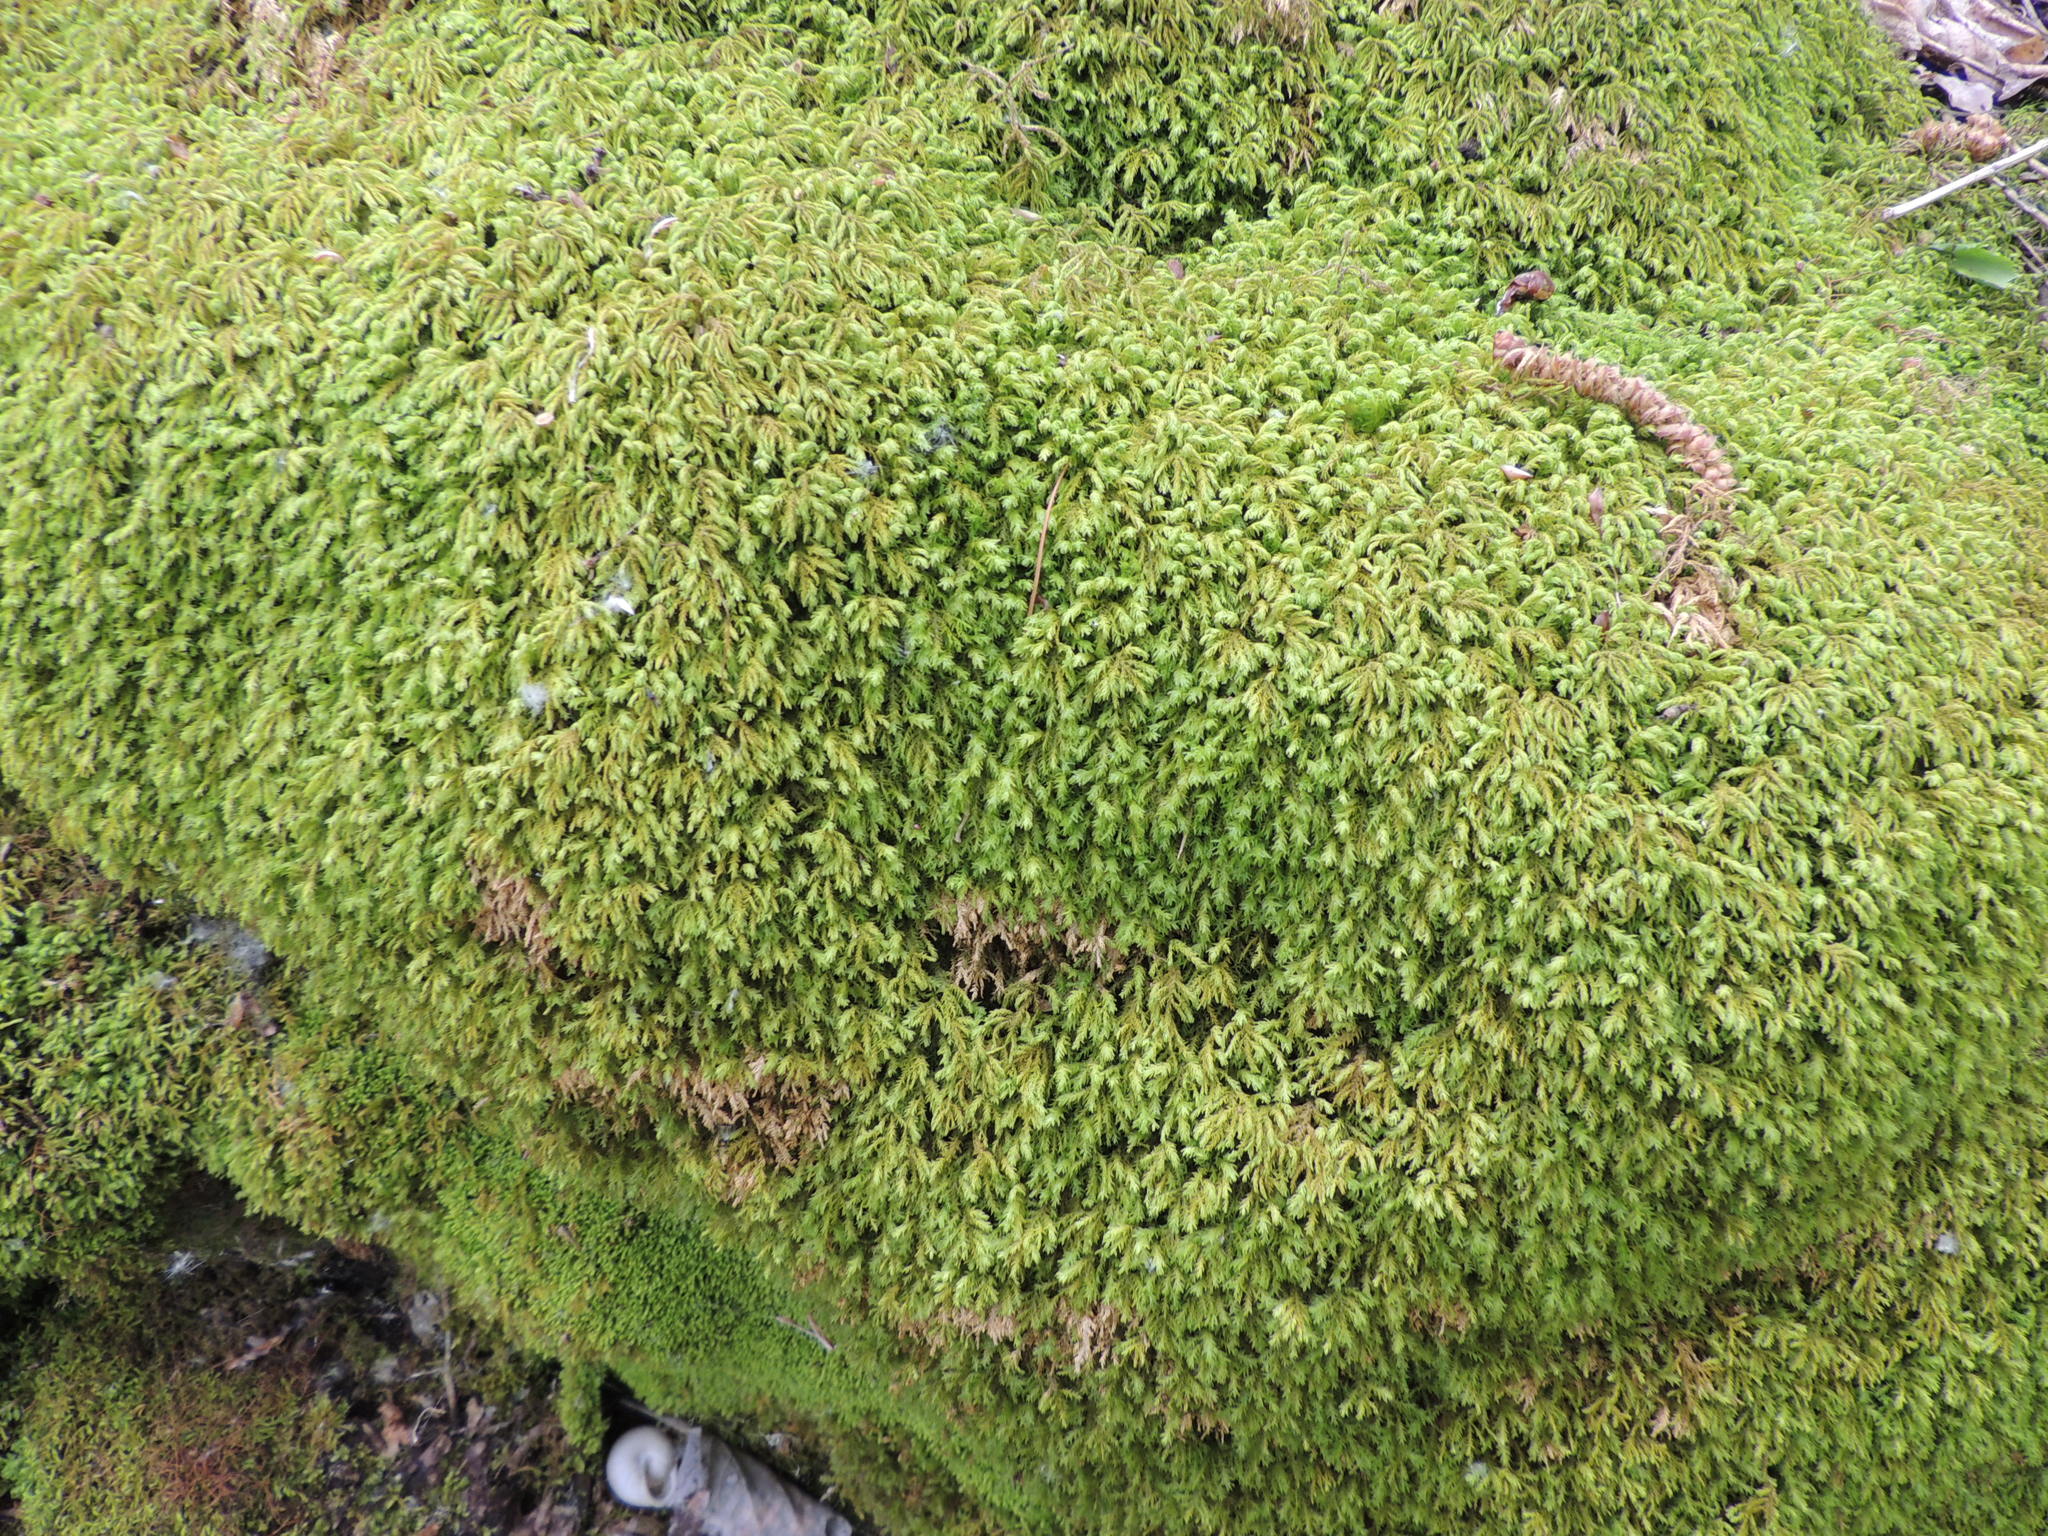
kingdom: Plantae
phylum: Bryophyta
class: Bryopsida
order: Hypnales
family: Neckeraceae
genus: Pseudanomodon
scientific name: Pseudanomodon attenuatus
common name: Tree-skirt moss
